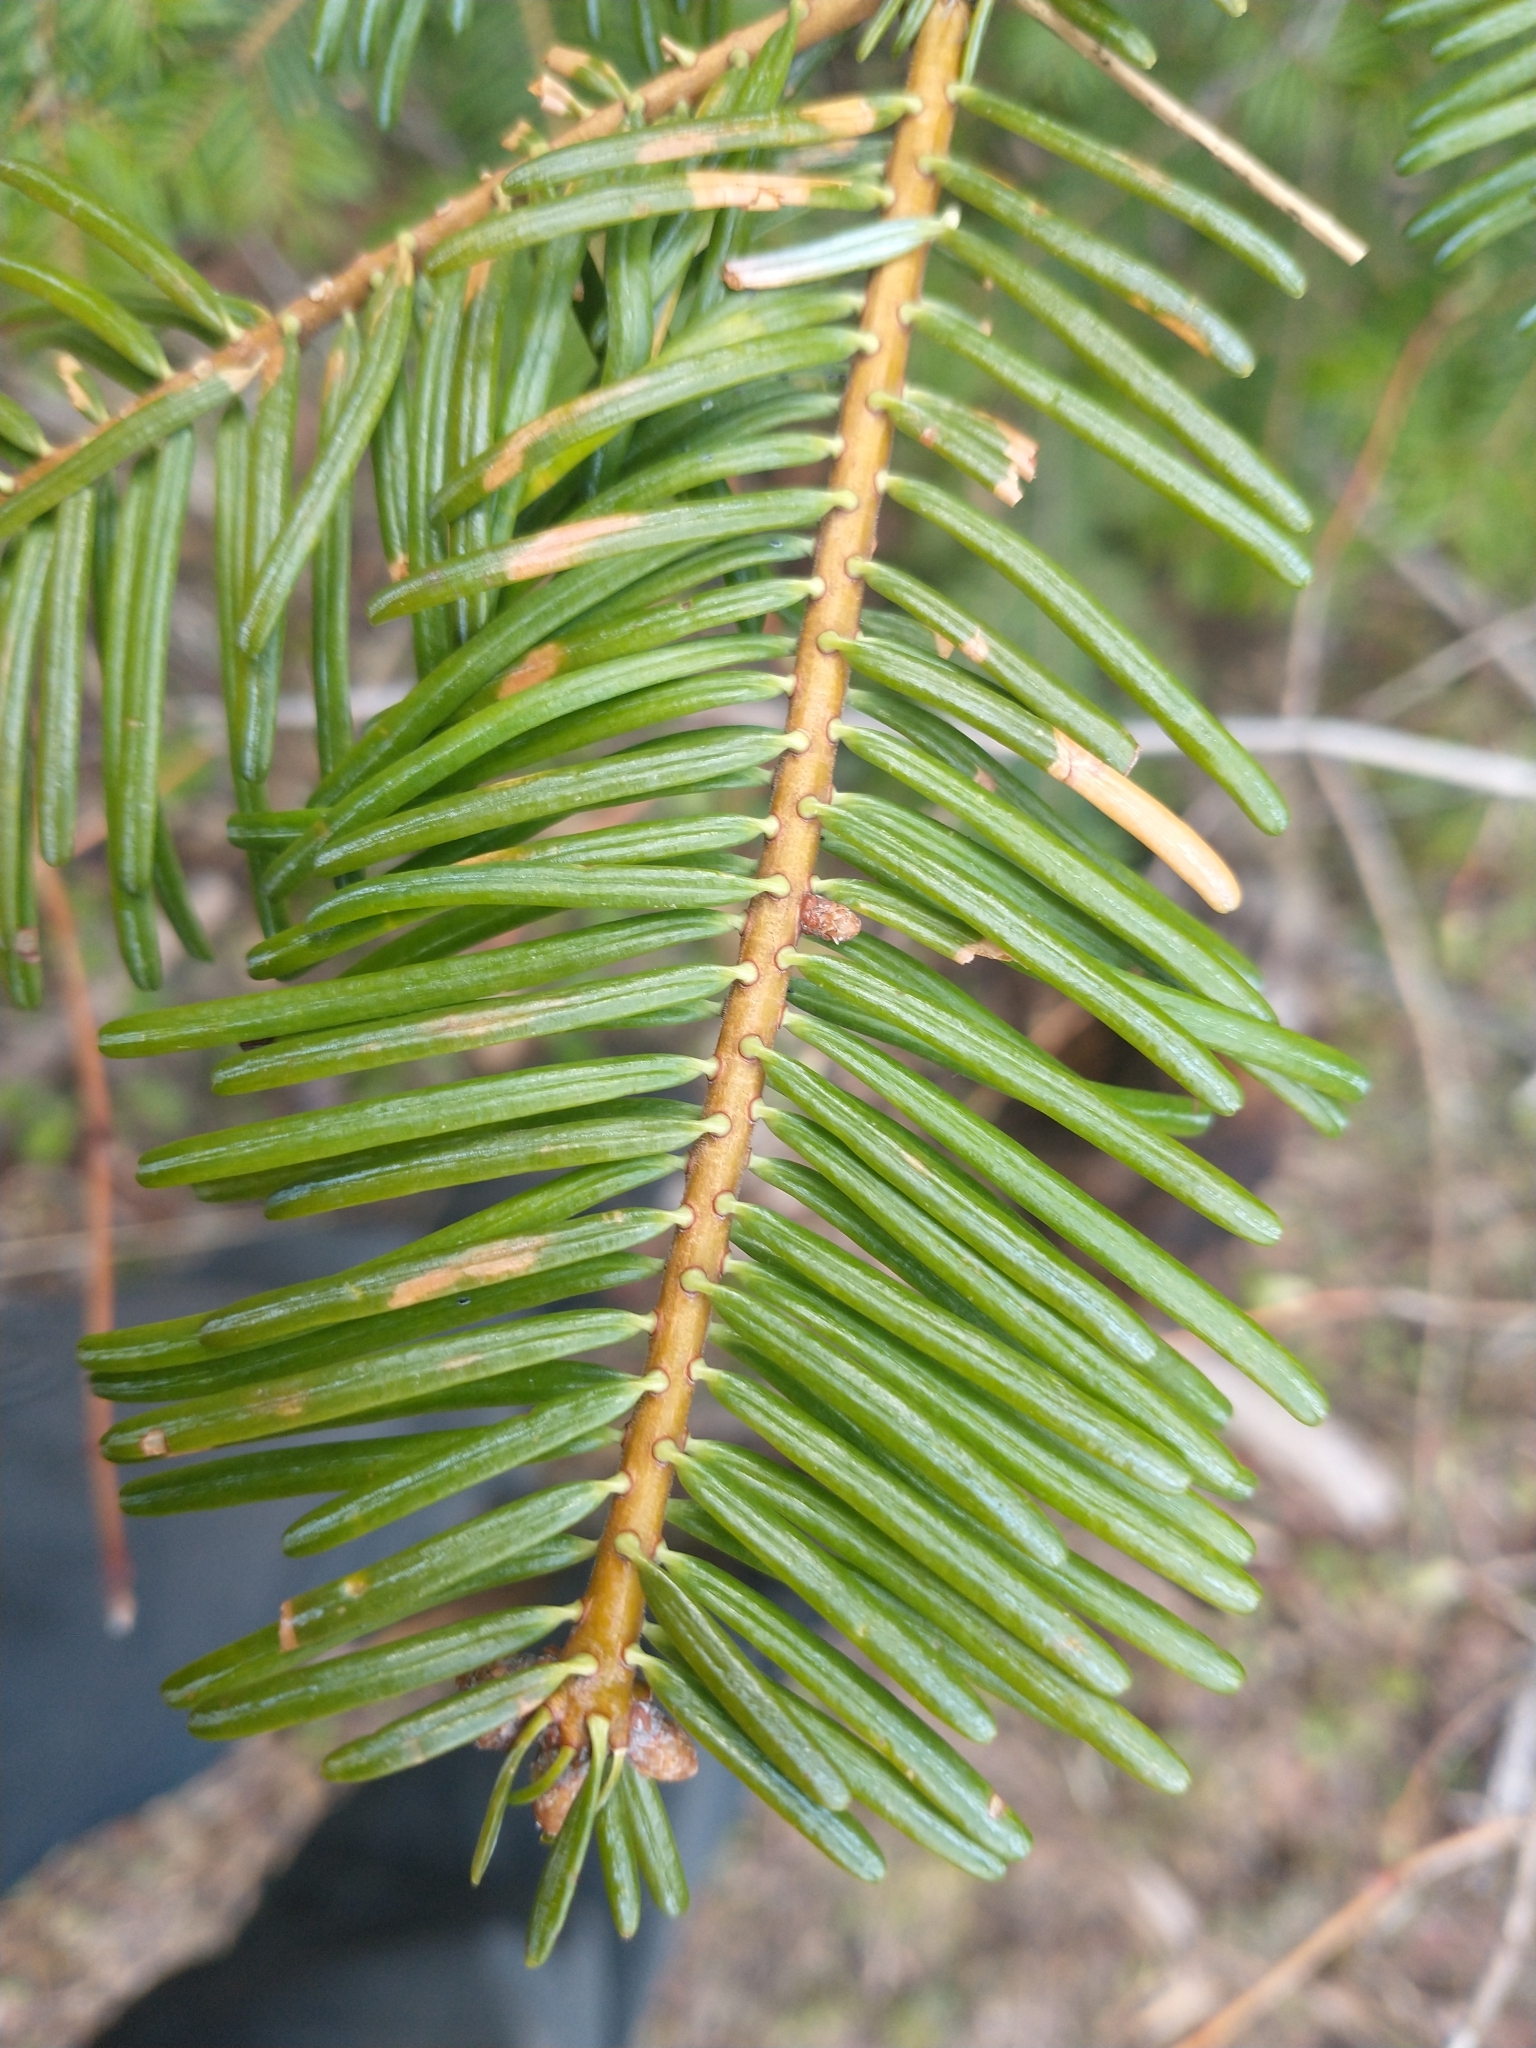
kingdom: Plantae
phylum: Tracheophyta
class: Pinopsida
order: Pinales
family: Pinaceae
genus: Abies
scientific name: Abies concolor
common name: Colorado fir
